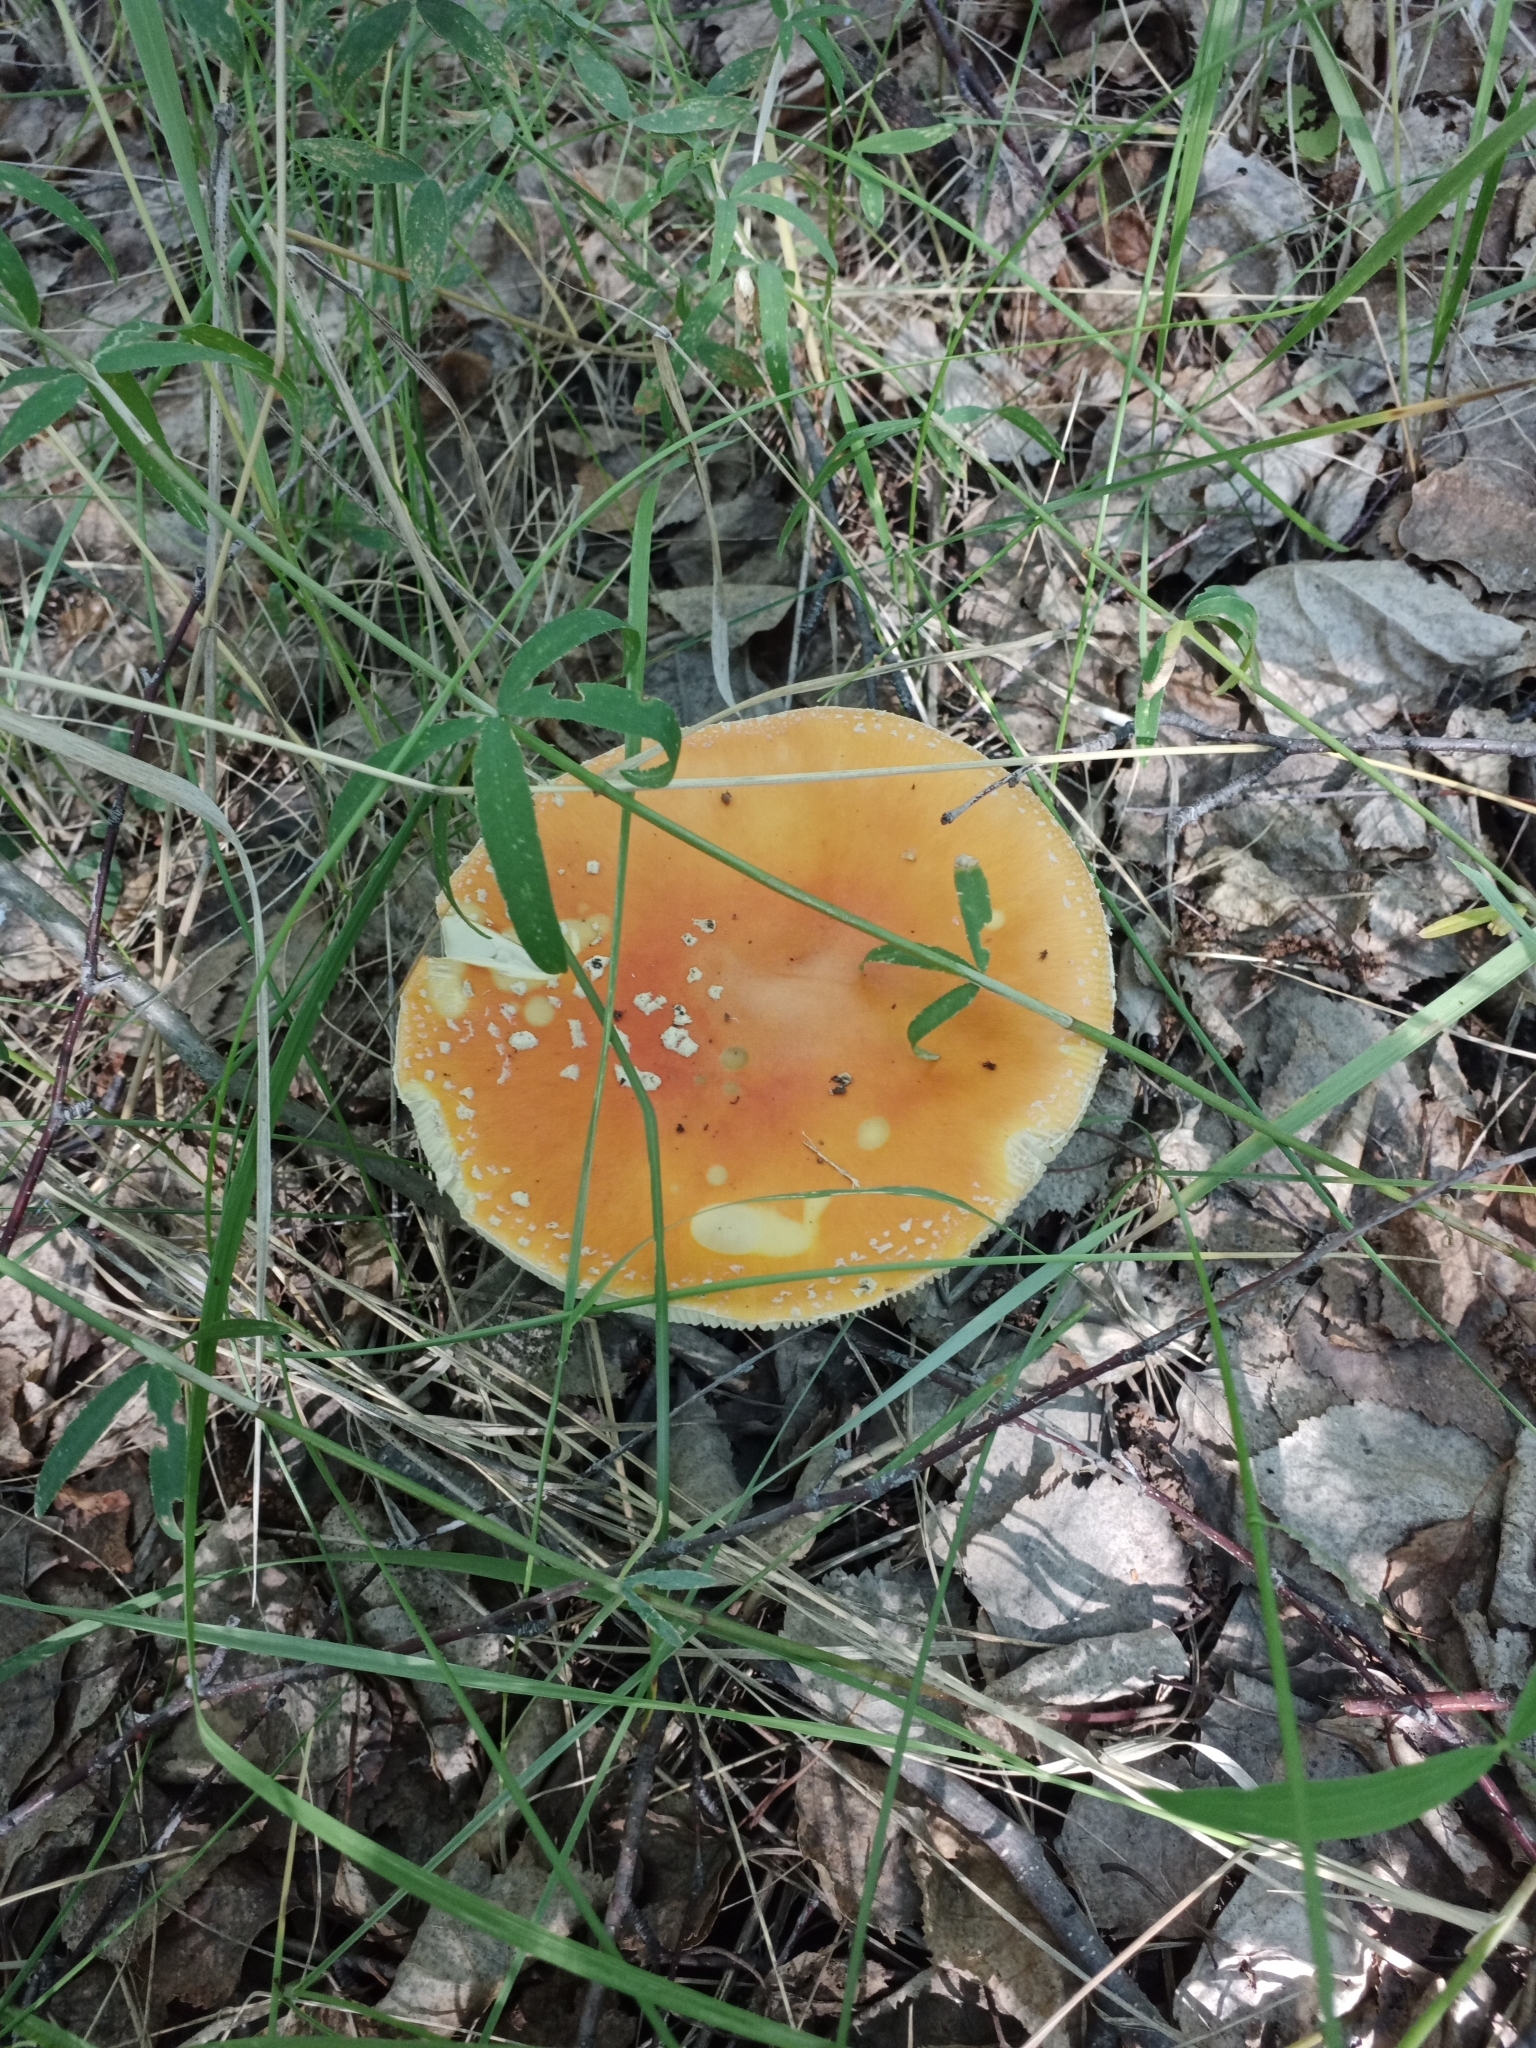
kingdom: Fungi
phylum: Basidiomycota
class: Agaricomycetes
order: Agaricales
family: Amanitaceae
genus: Amanita
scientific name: Amanita muscaria
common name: Fly agaric
